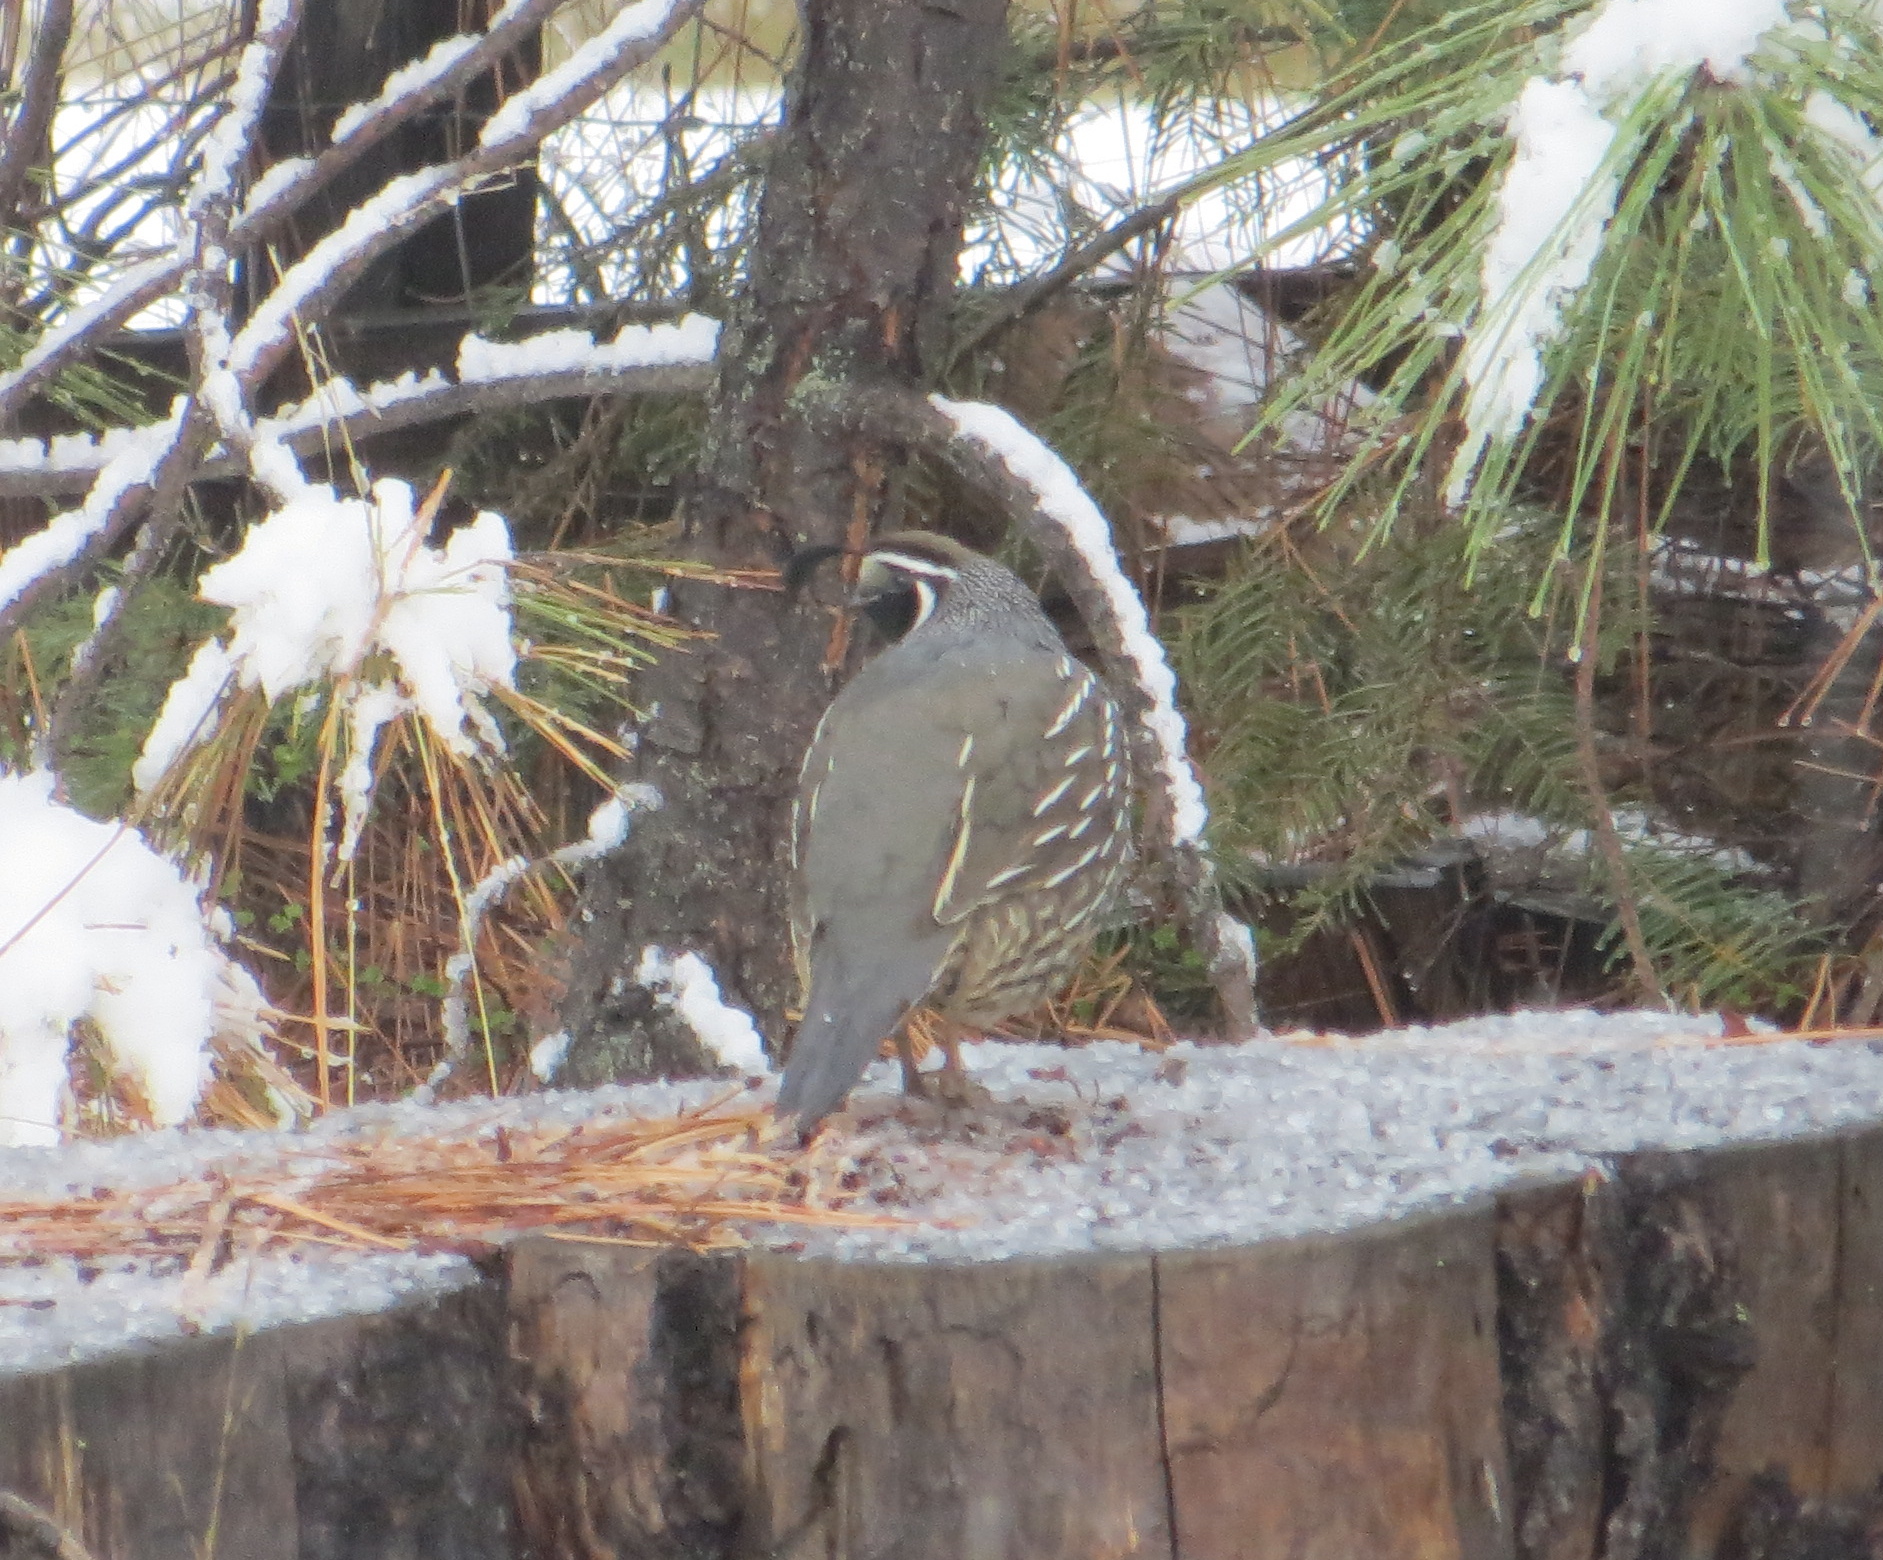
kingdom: Animalia
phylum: Chordata
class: Aves
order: Galliformes
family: Odontophoridae
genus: Callipepla
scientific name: Callipepla californica
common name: California quail
